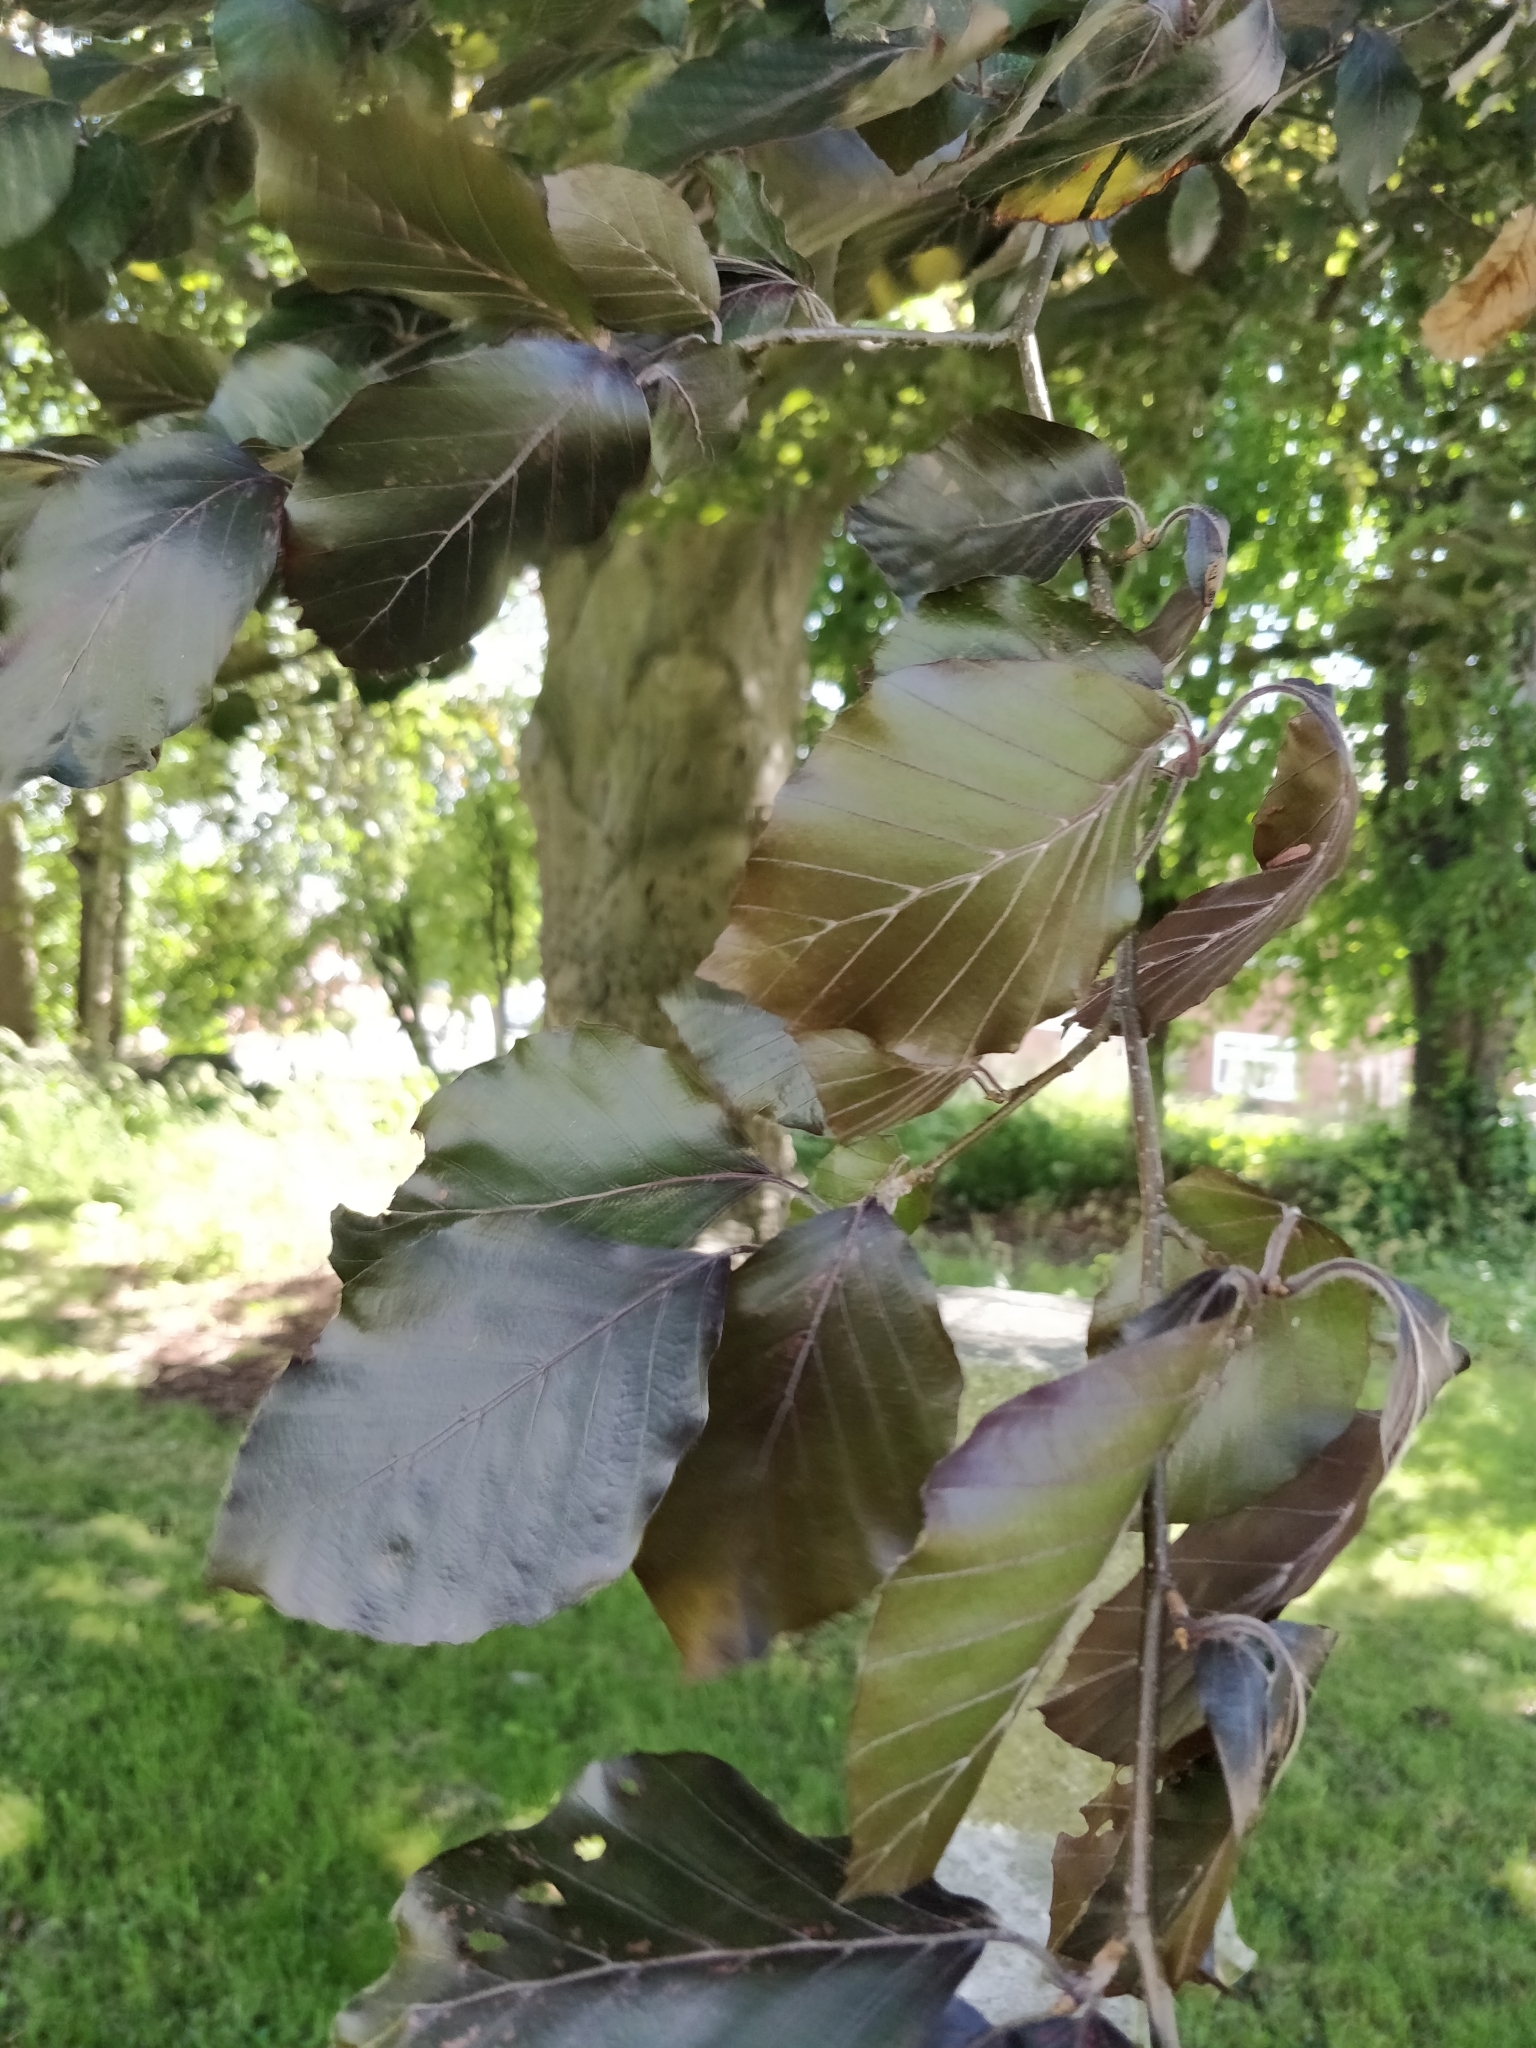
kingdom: Plantae
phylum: Tracheophyta
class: Magnoliopsida
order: Fagales
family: Fagaceae
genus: Fagus
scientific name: Fagus sylvatica
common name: Beech
